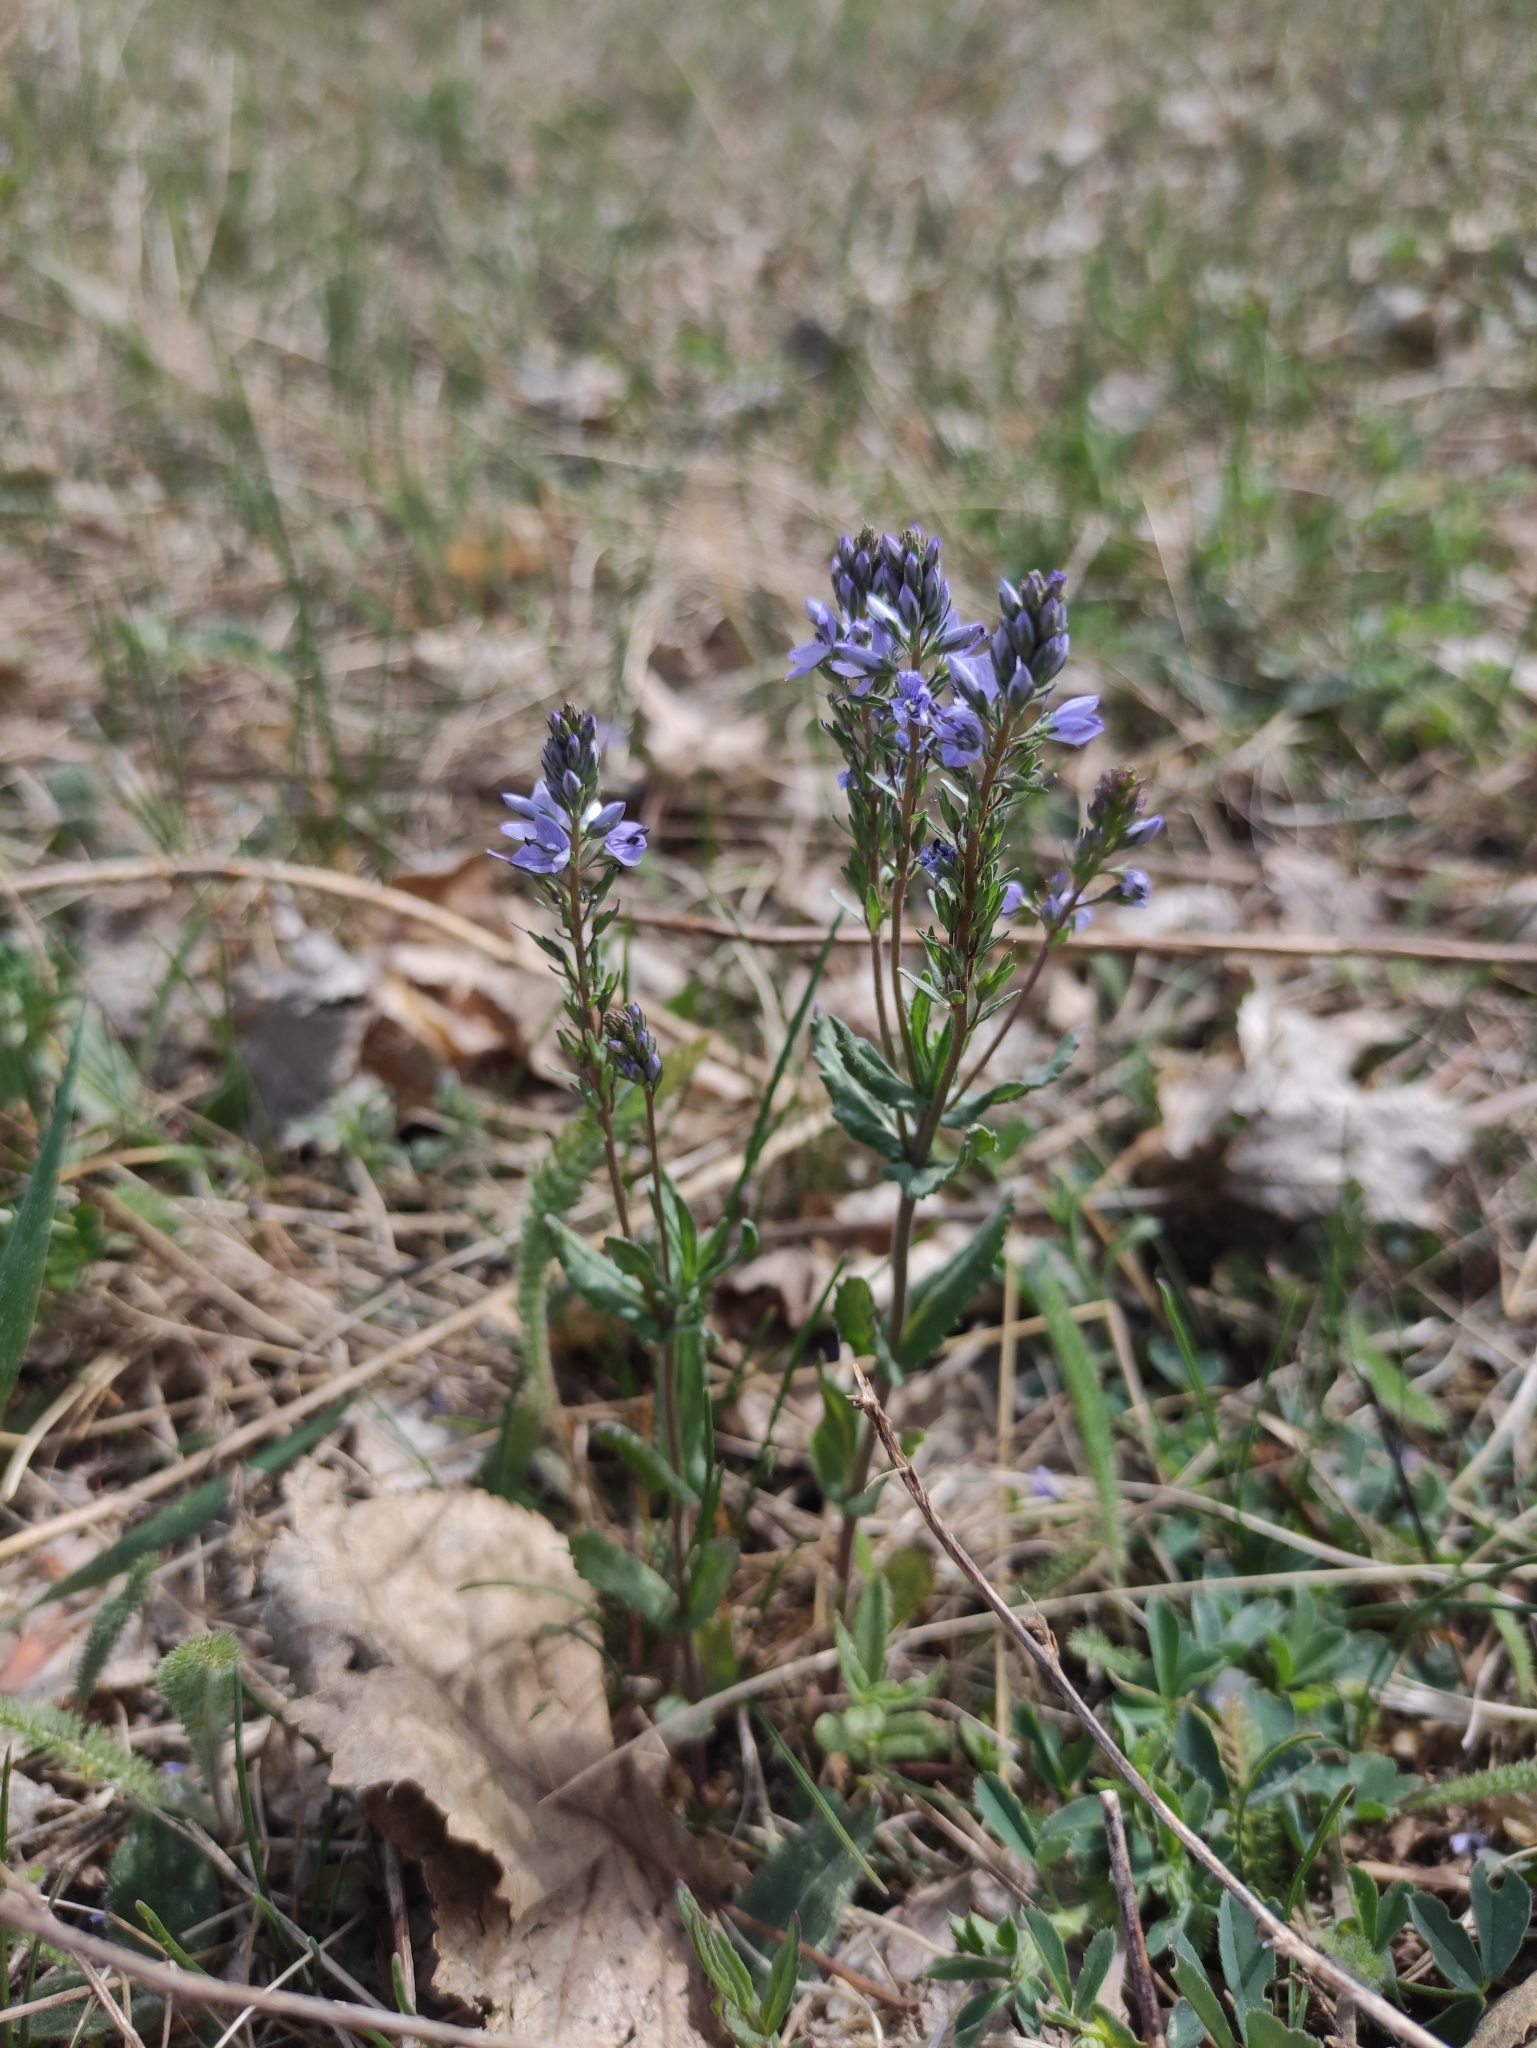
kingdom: Plantae
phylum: Tracheophyta
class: Magnoliopsida
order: Lamiales
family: Plantaginaceae
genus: Veronica
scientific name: Veronica prostrata
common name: Prostrate speedwell
